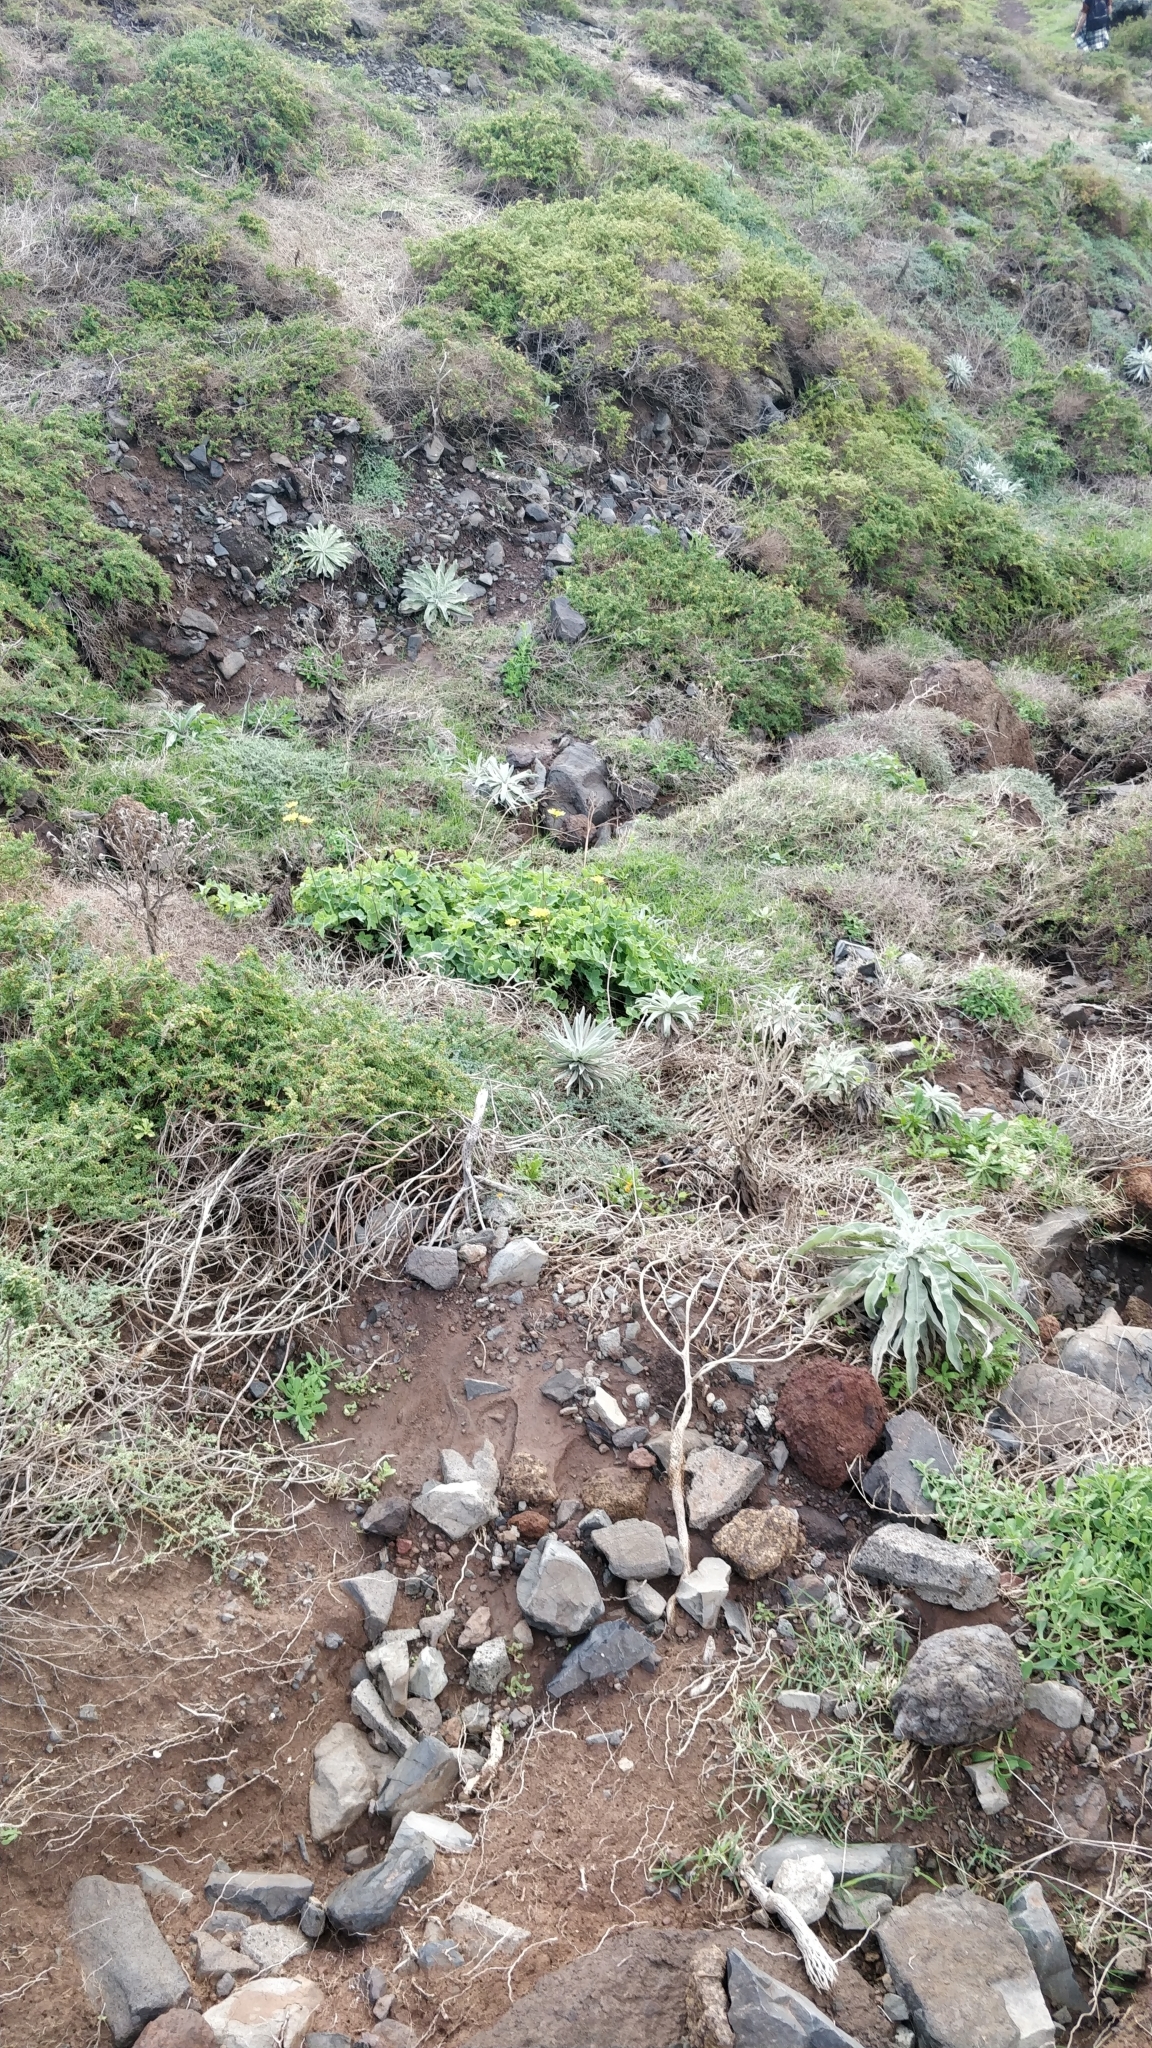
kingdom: Plantae
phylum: Tracheophyta
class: Magnoliopsida
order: Asterales
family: Asteraceae
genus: Sonchus
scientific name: Sonchus latifolius
